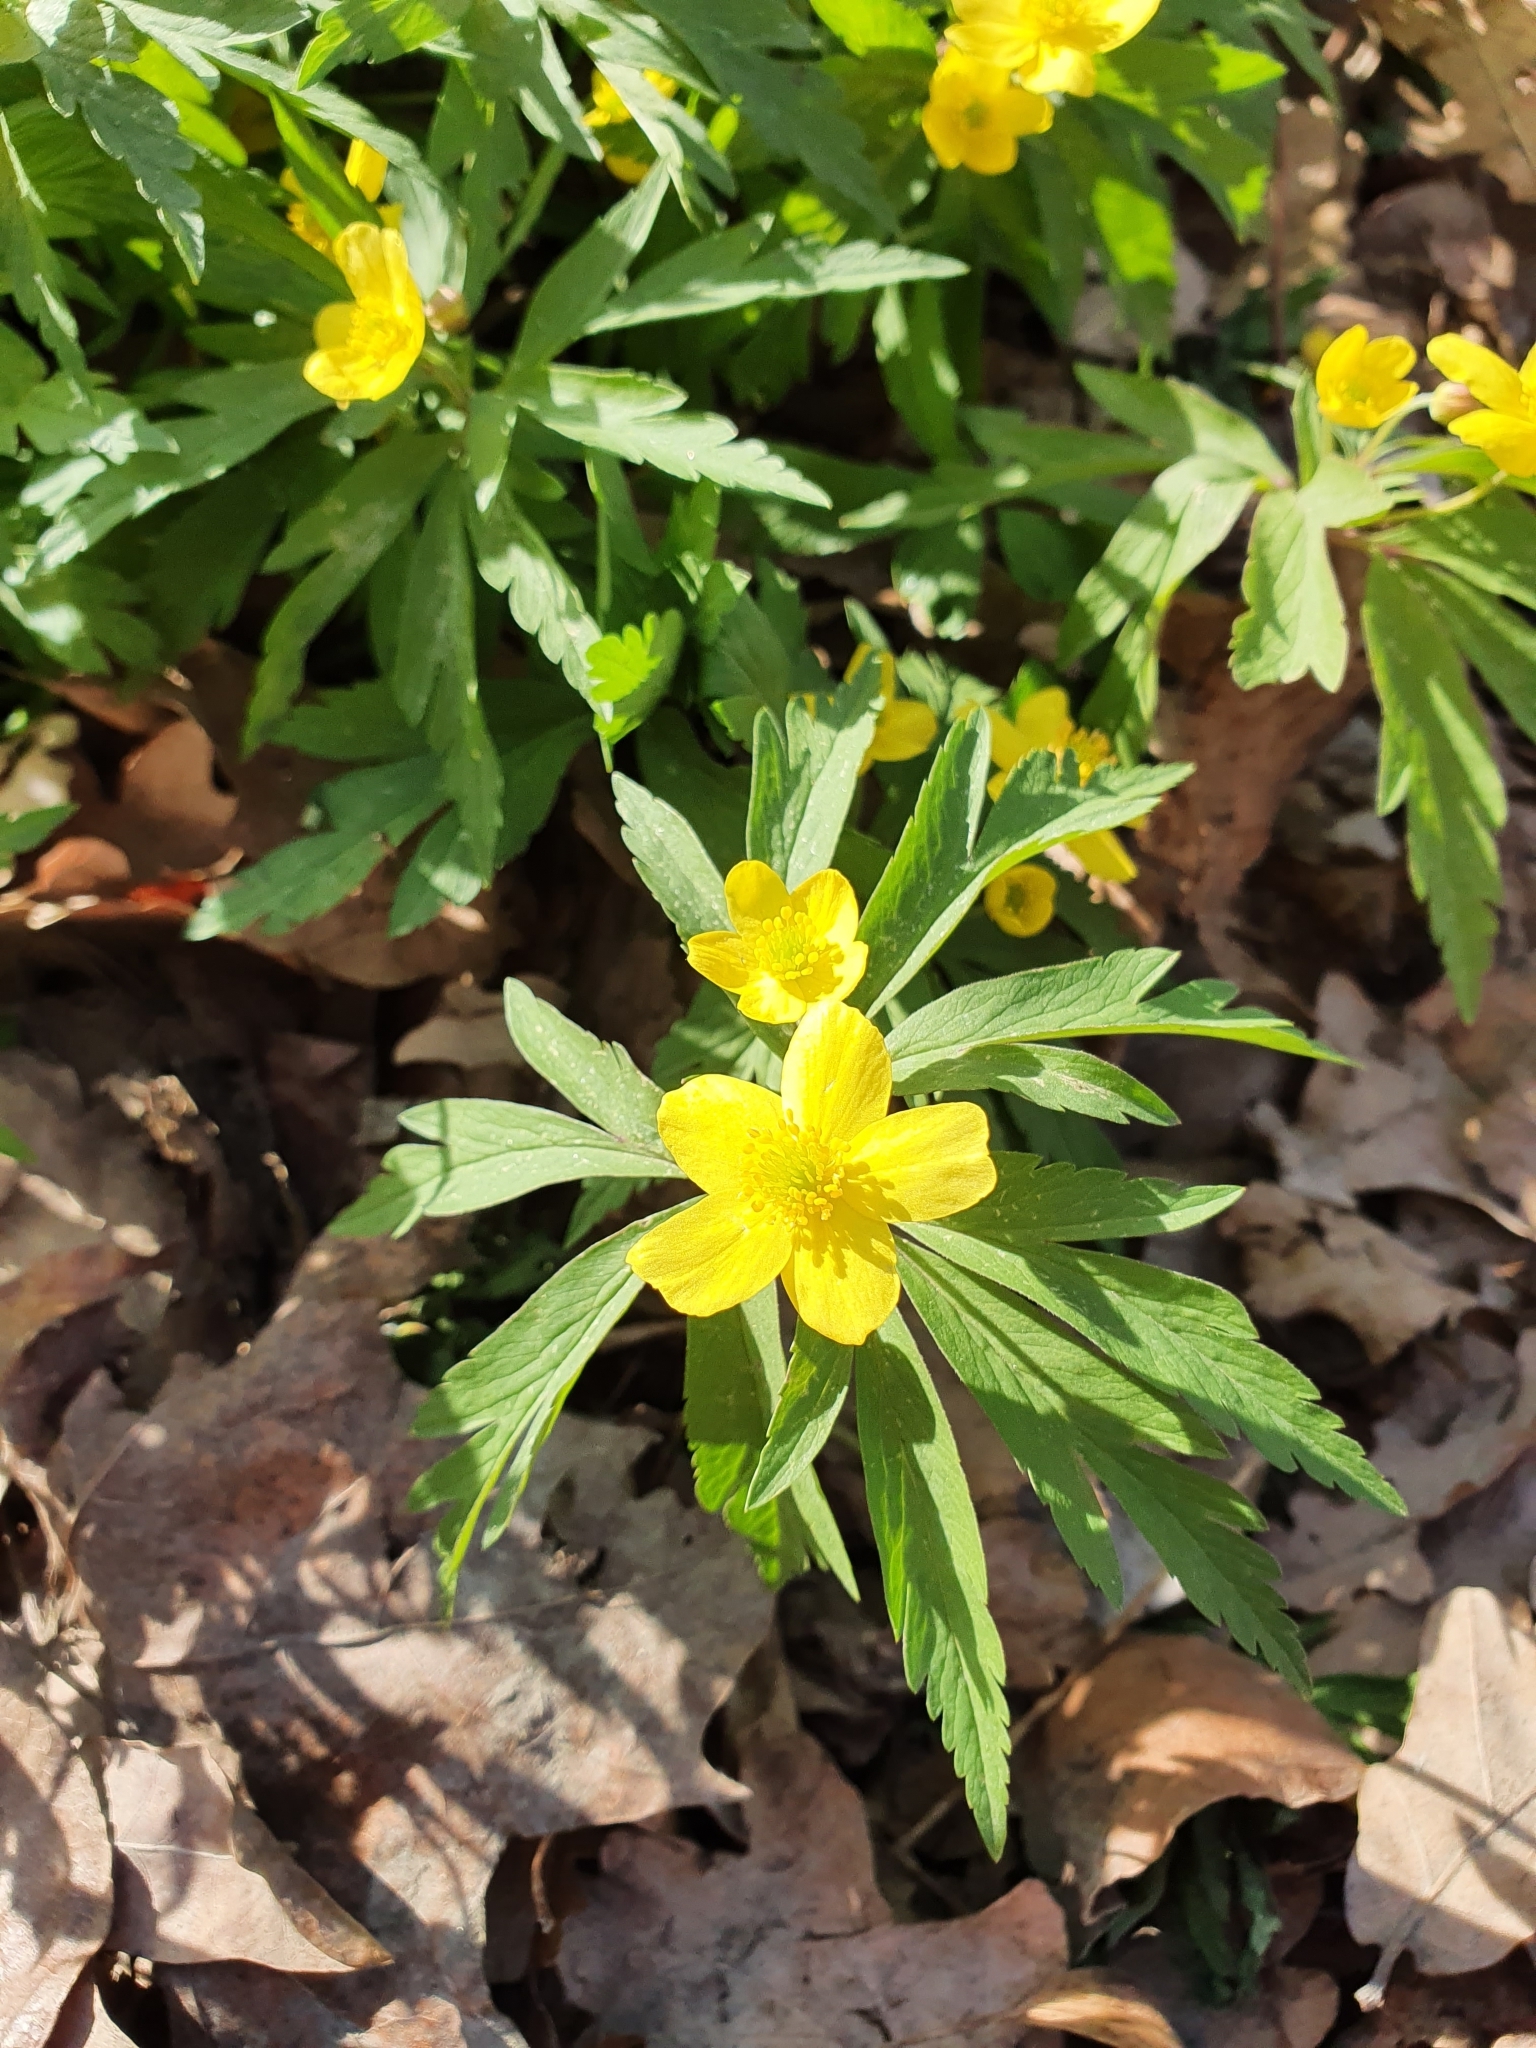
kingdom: Plantae
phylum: Tracheophyta
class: Magnoliopsida
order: Ranunculales
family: Ranunculaceae
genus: Anemone
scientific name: Anemone ranunculoides
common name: Yellow anemone
